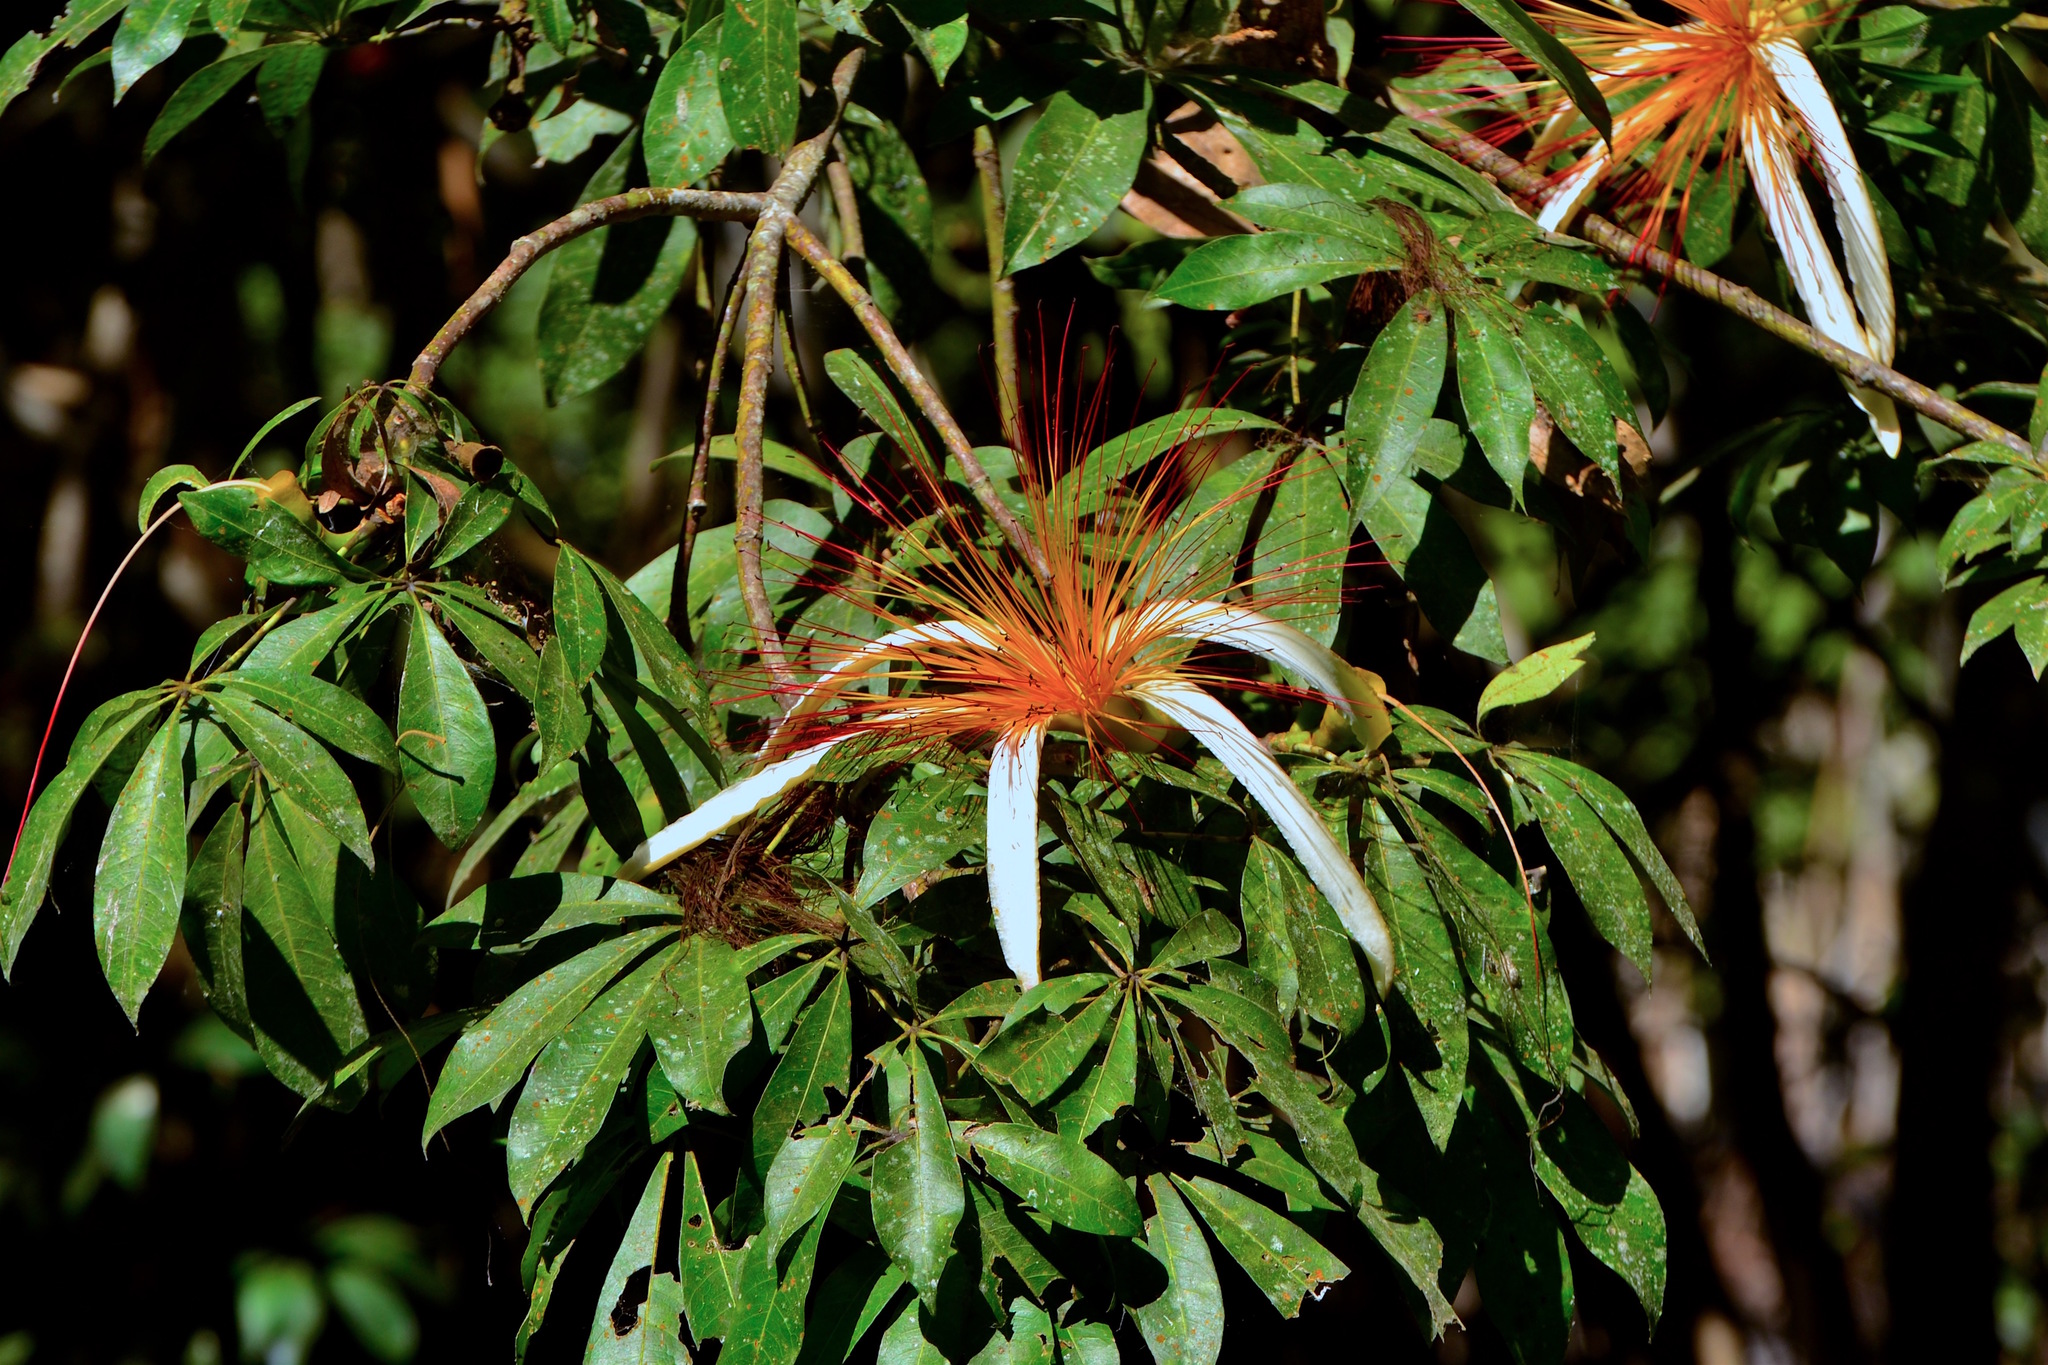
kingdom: Plantae
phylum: Tracheophyta
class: Magnoliopsida
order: Malvales
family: Malvaceae
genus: Pachira
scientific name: Pachira aquatica
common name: Provision-tree
